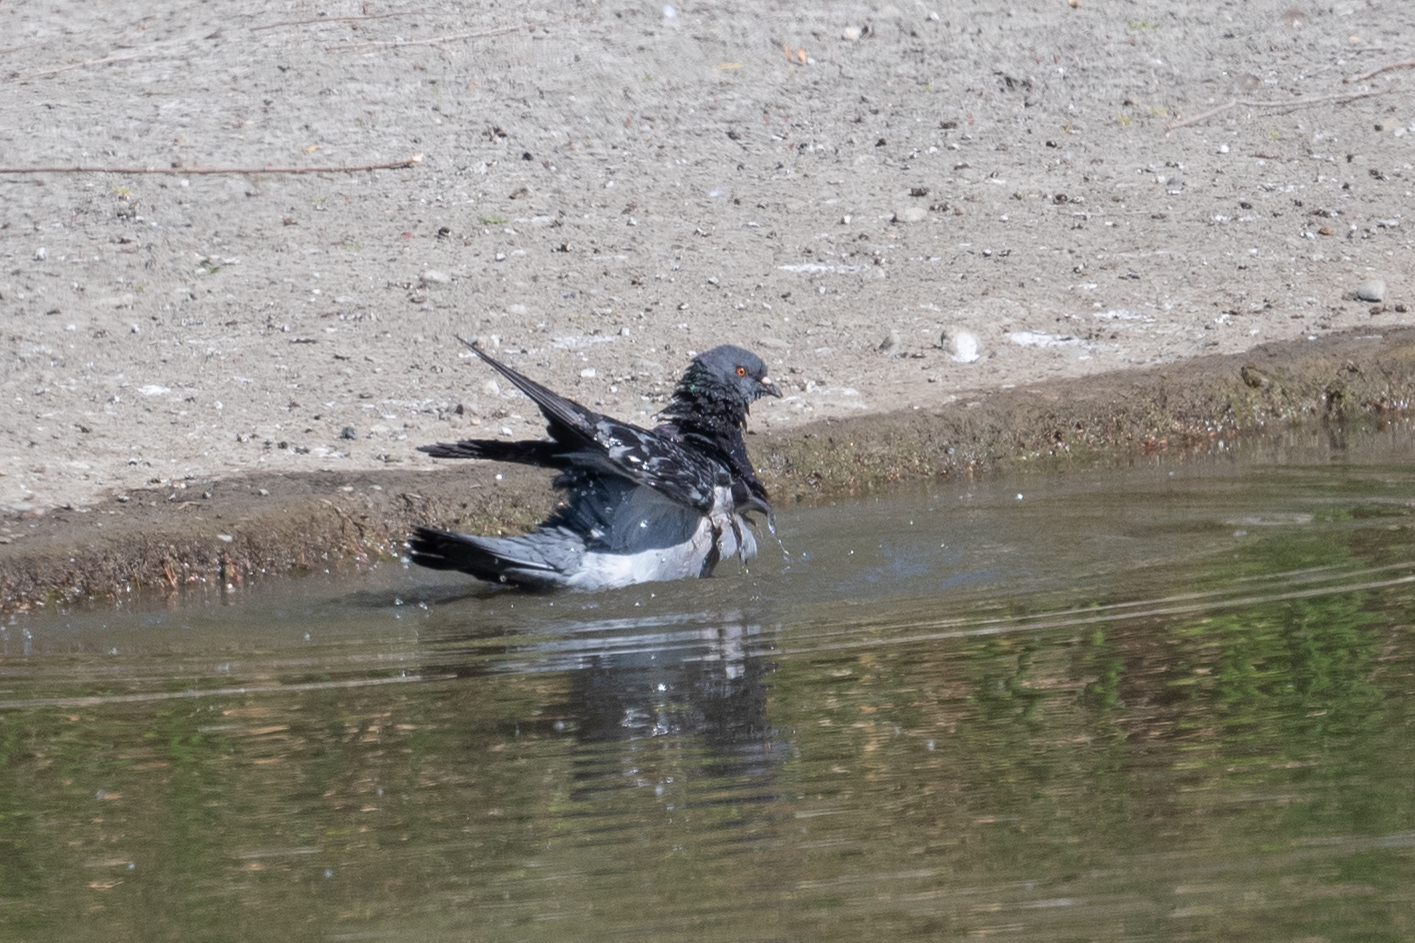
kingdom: Animalia
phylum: Chordata
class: Aves
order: Columbiformes
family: Columbidae
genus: Columba
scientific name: Columba livia
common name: Rock pigeon
